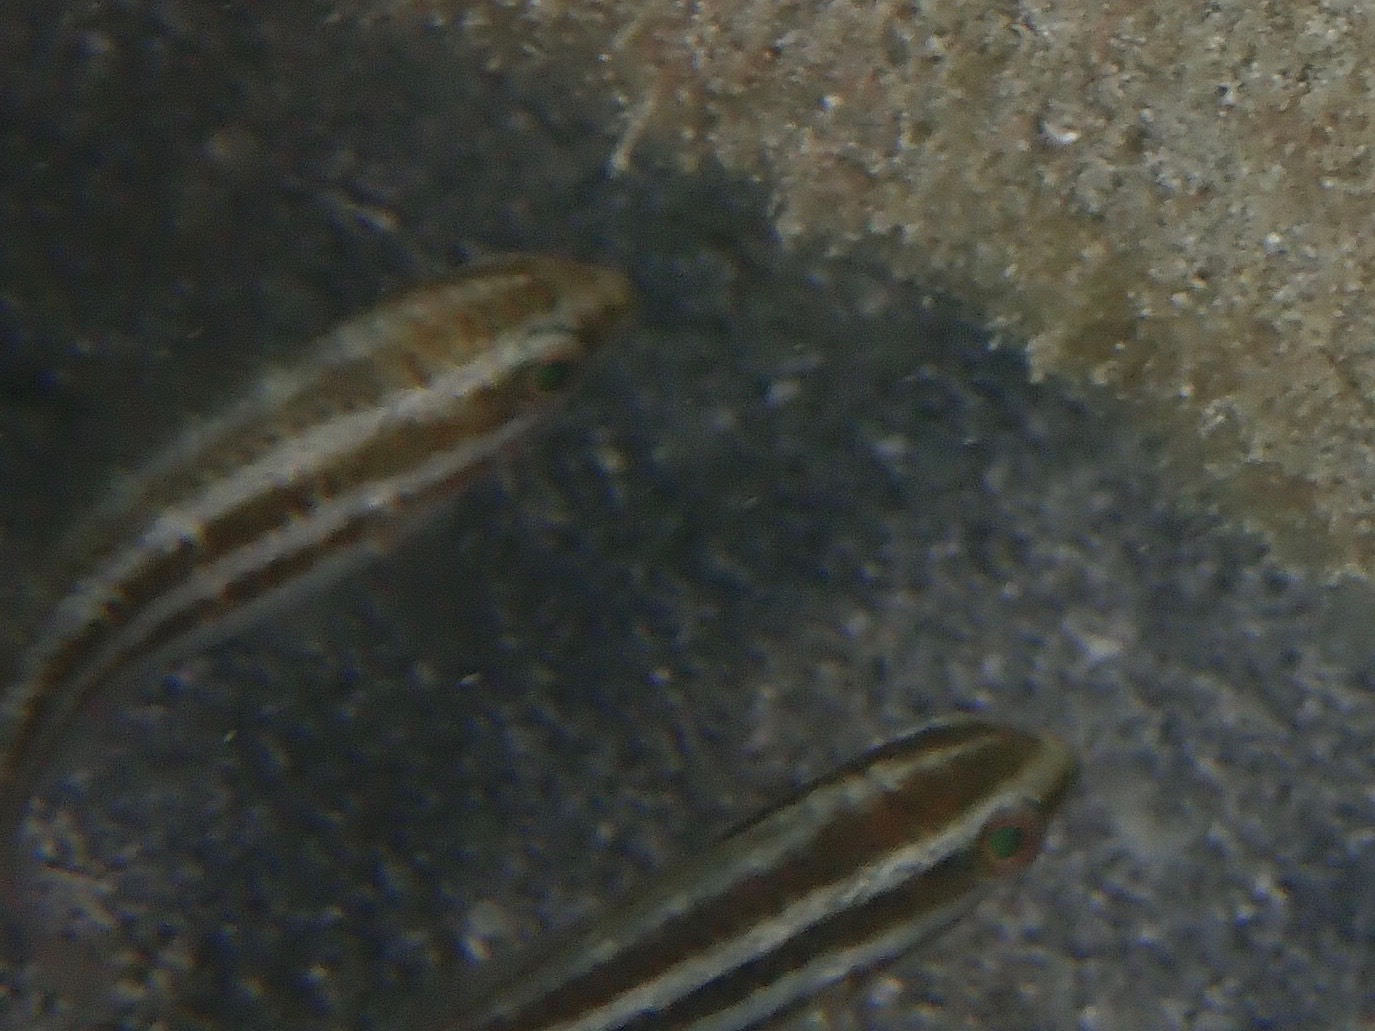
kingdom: Animalia
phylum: Chordata
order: Perciformes
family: Scaridae
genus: Scarus
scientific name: Scarus
